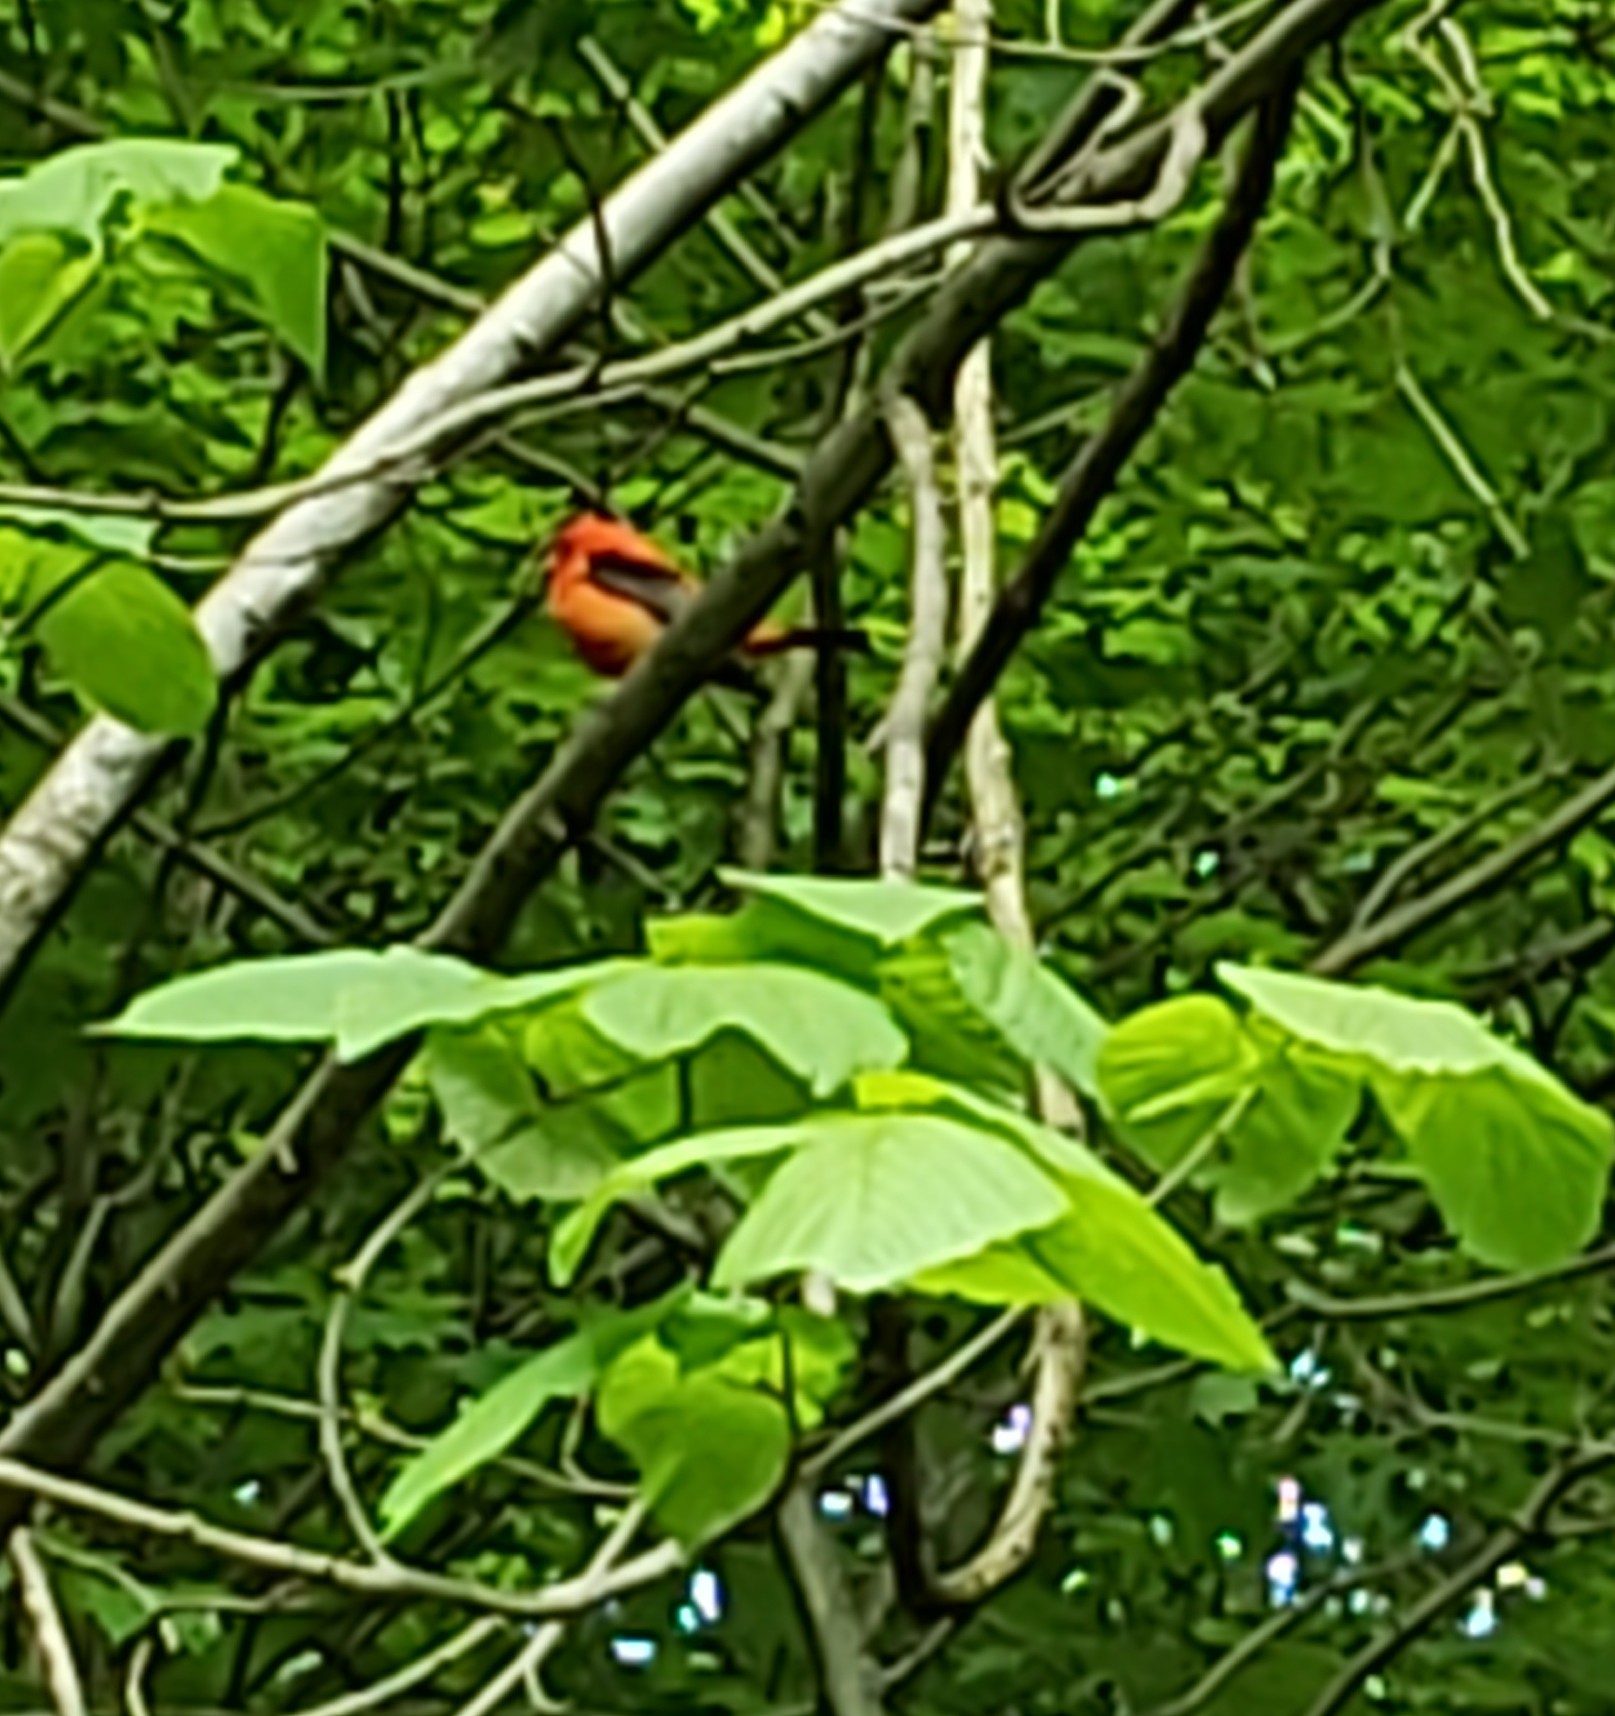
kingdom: Animalia
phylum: Chordata
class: Aves
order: Passeriformes
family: Cardinalidae
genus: Piranga
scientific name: Piranga olivacea
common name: Scarlet tanager
